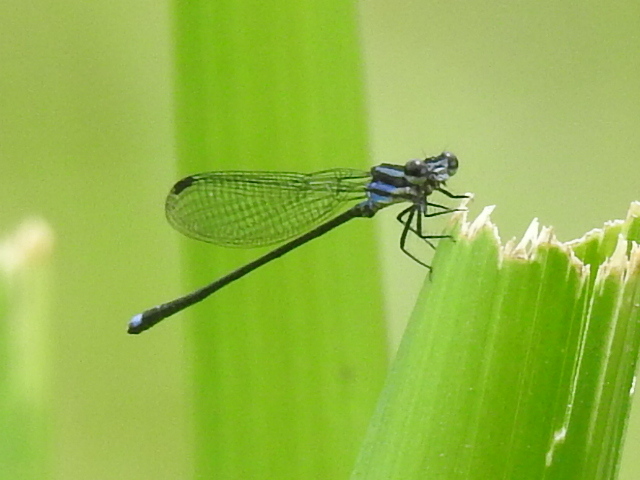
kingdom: Animalia
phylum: Arthropoda
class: Insecta
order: Odonata
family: Coenagrionidae
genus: Argia
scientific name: Argia indicatrix
